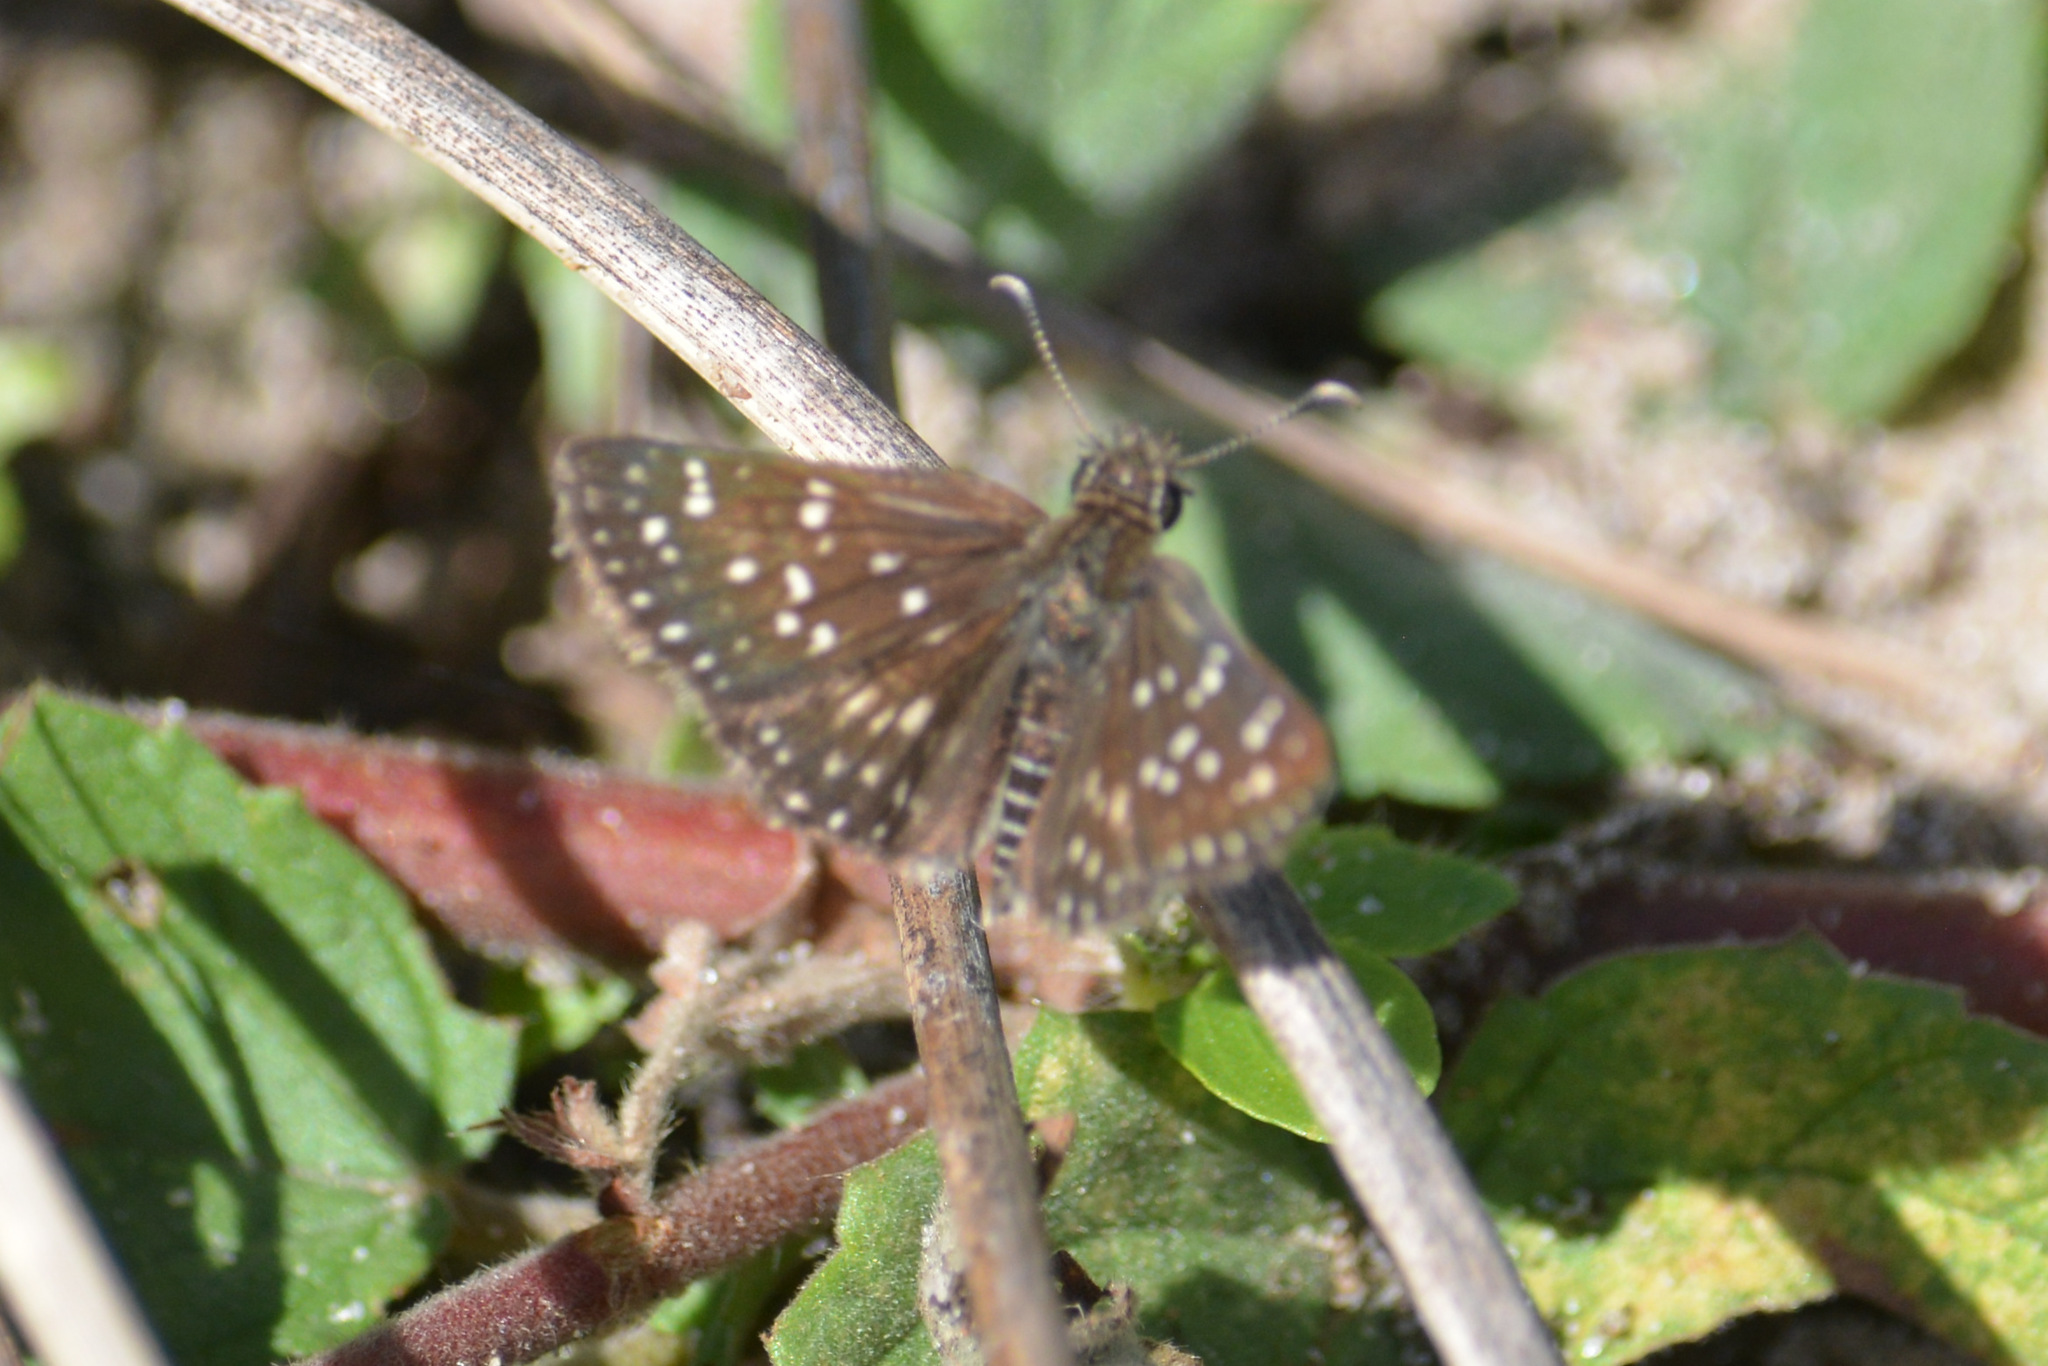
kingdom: Animalia
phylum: Arthropoda
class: Insecta
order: Lepidoptera
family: Hesperiidae
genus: Chirgus
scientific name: Chirgus
